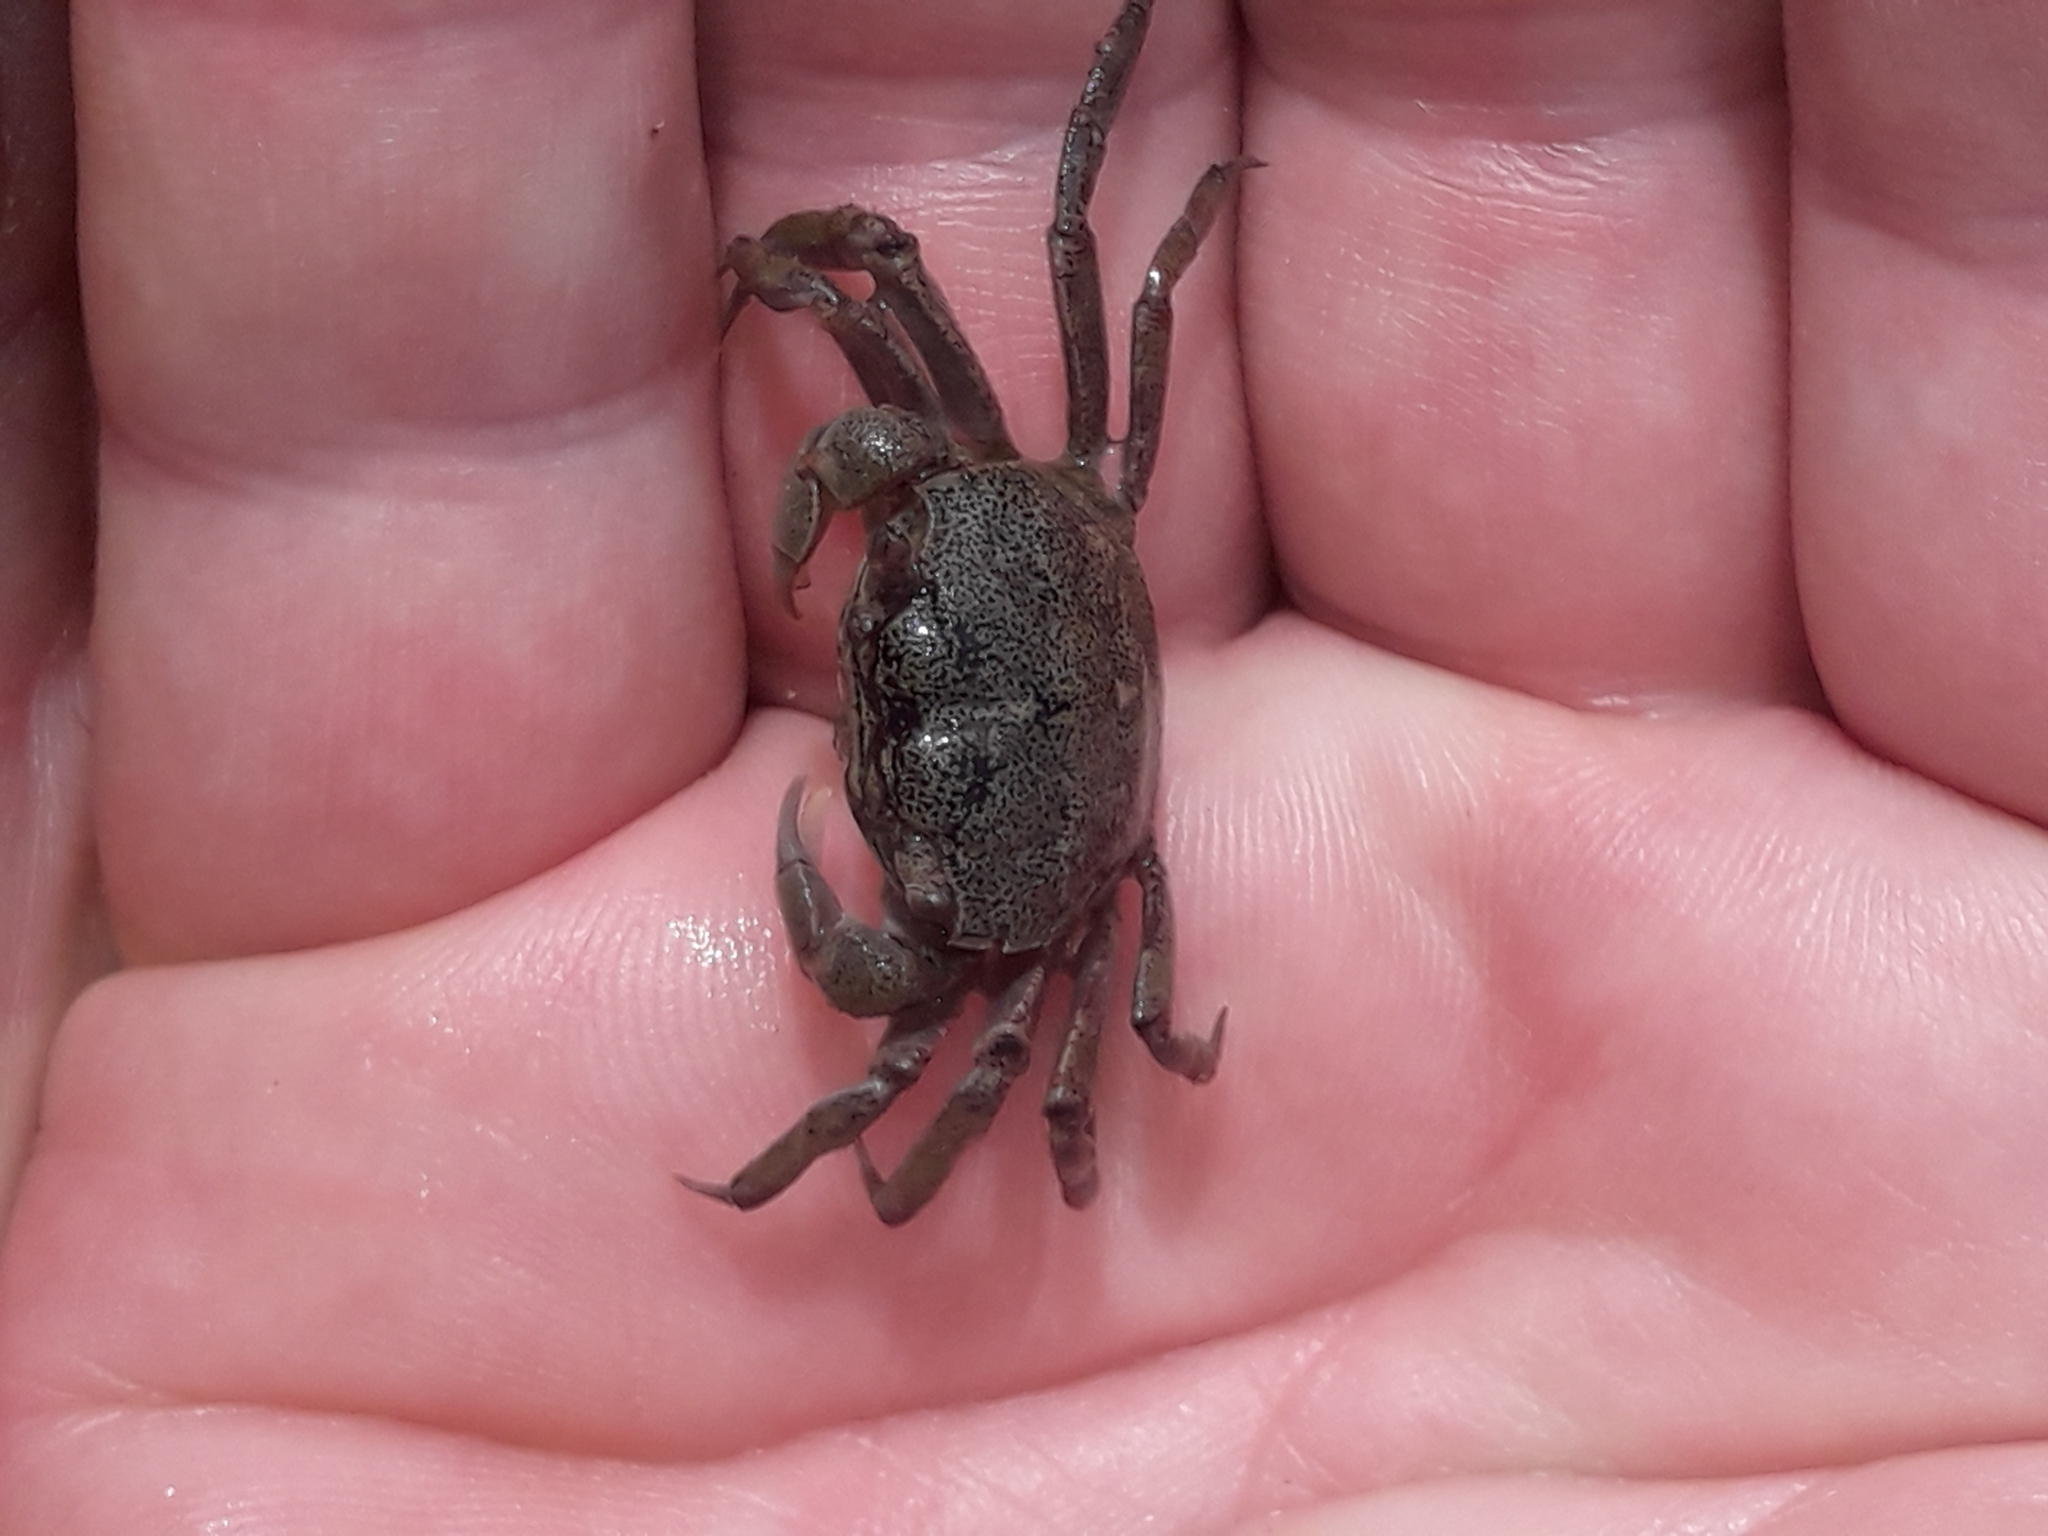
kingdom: Animalia
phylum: Arthropoda
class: Malacostraca
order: Decapoda
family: Varunidae
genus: Austrohelice
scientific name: Austrohelice crassa
